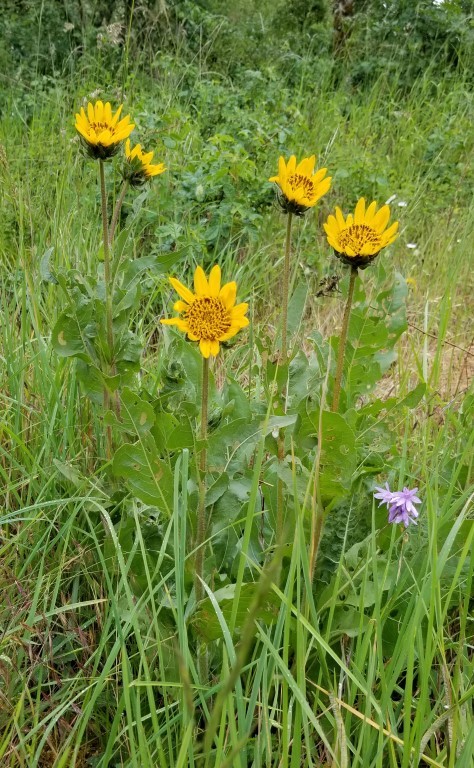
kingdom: Plantae
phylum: Tracheophyta
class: Magnoliopsida
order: Asterales
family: Asteraceae
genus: Wyethia
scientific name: Wyethia angustifolia
